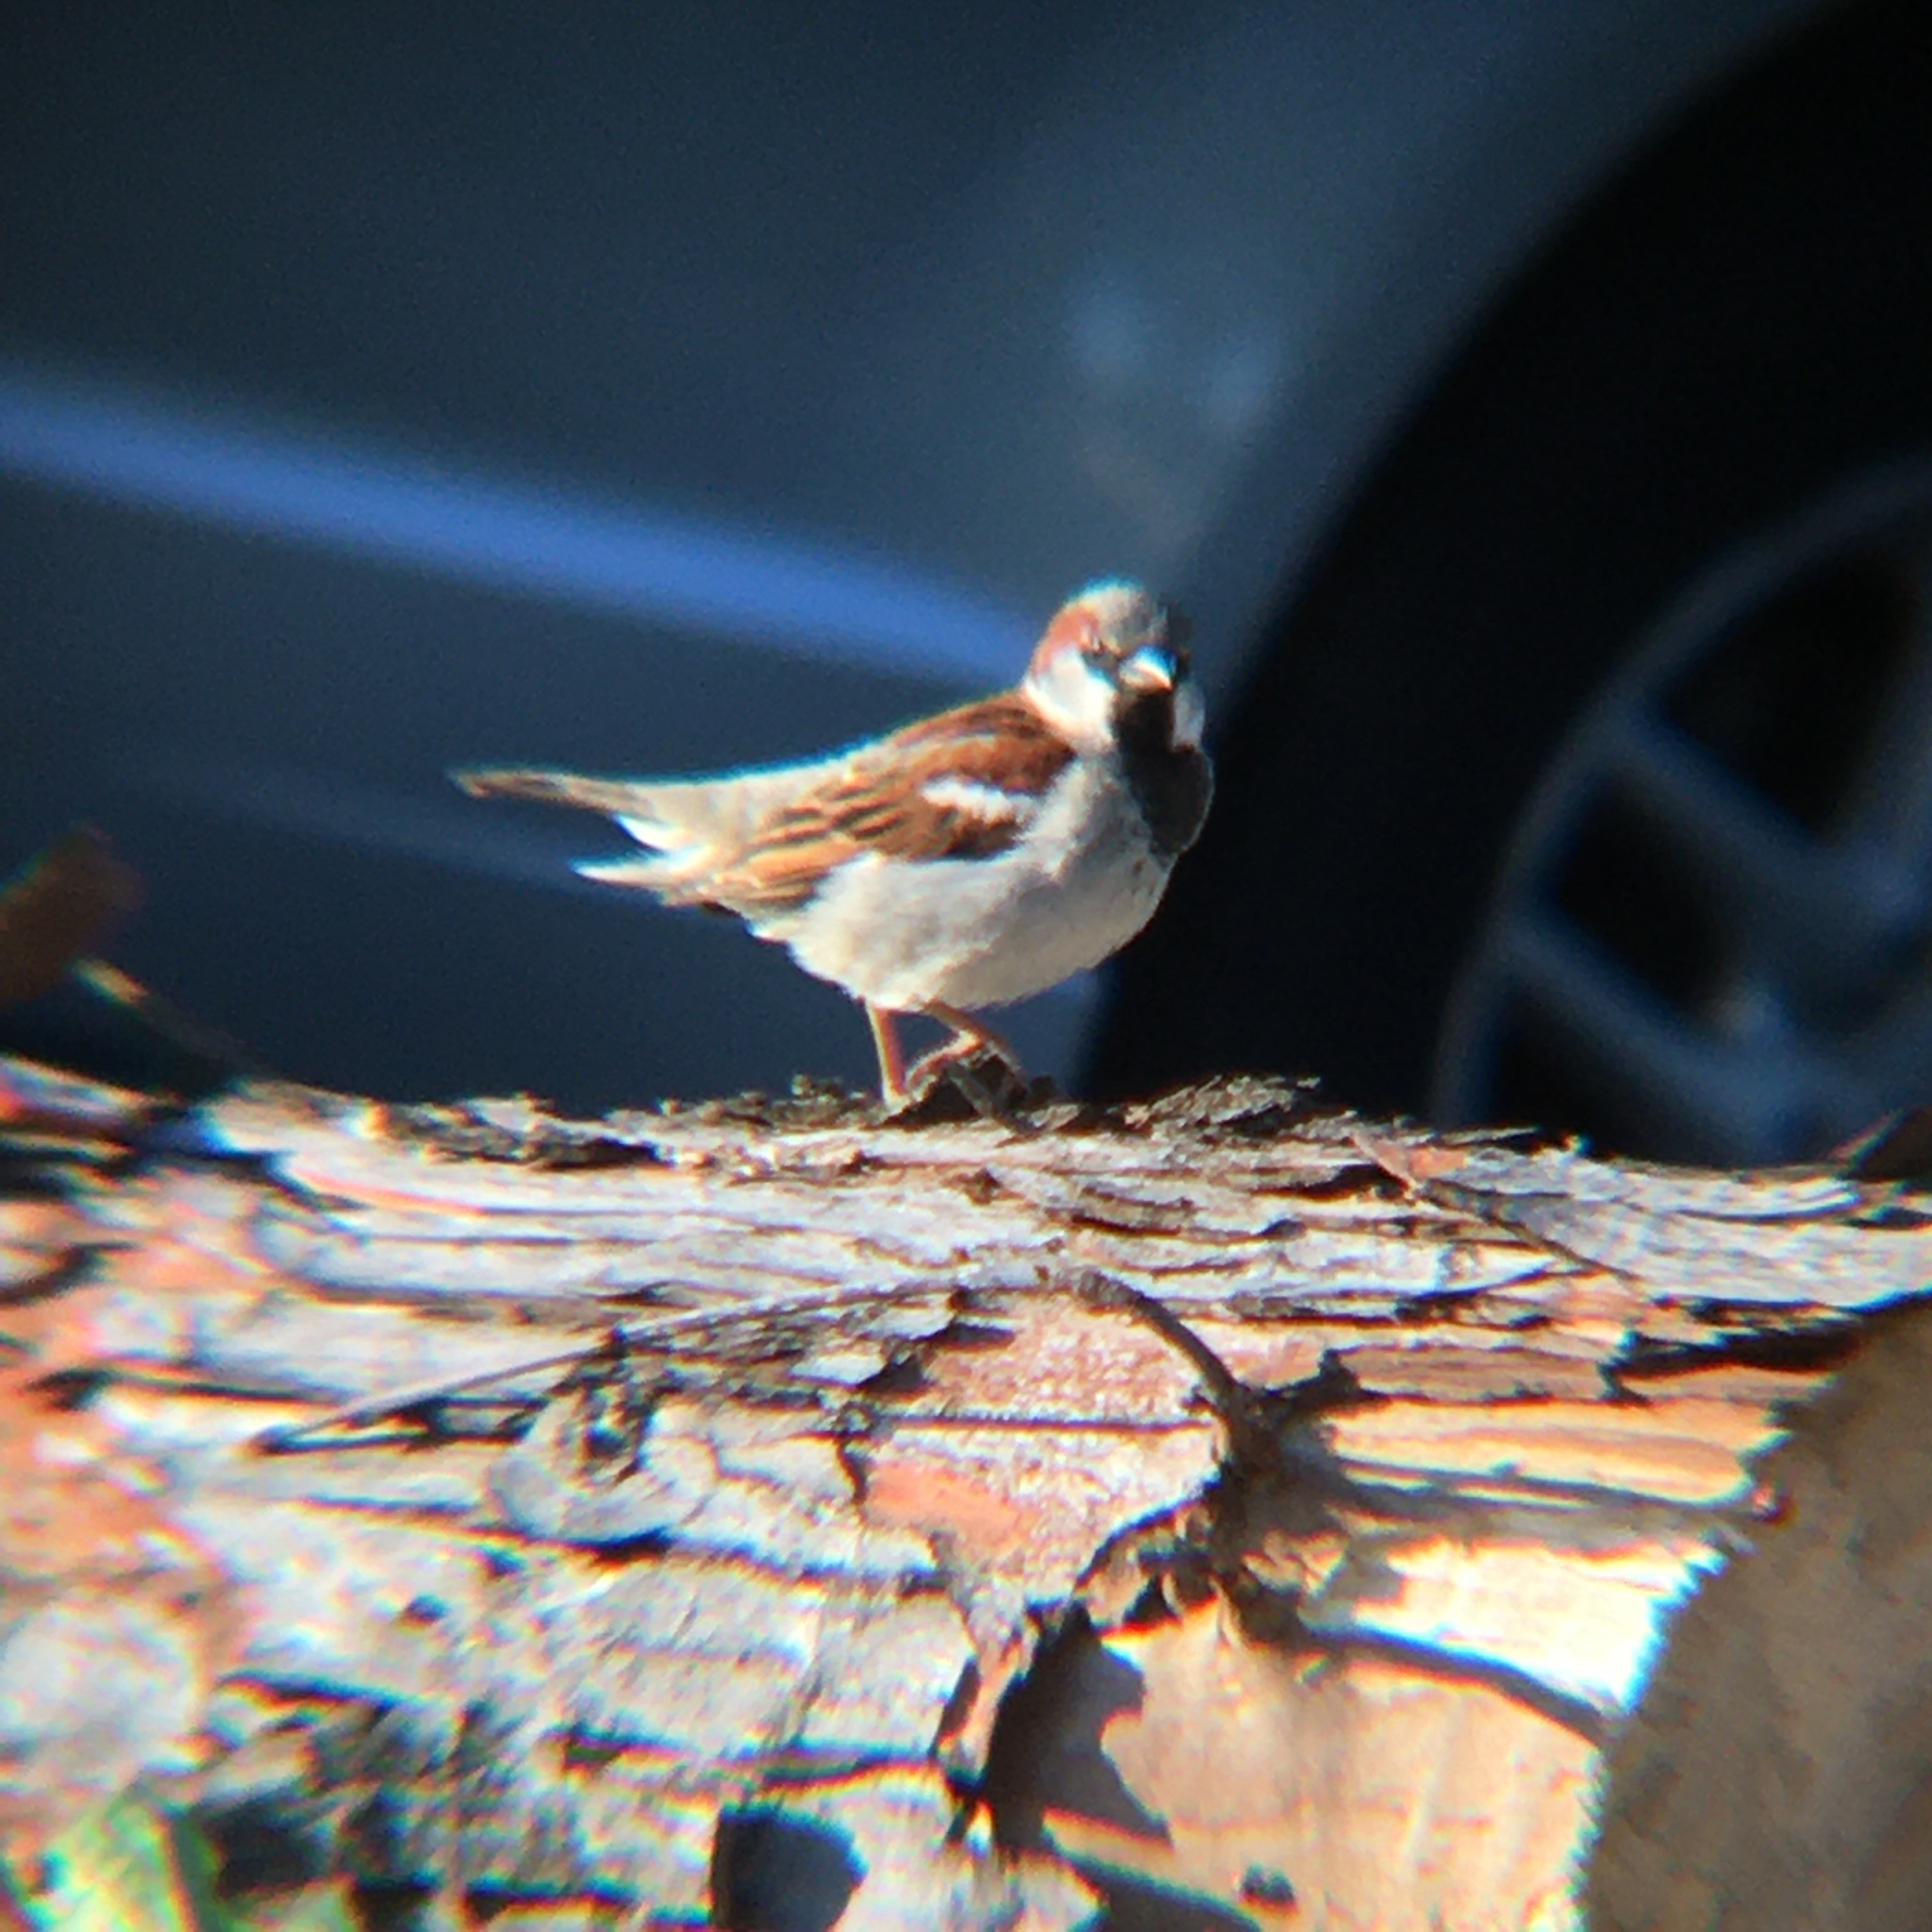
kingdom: Animalia
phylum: Chordata
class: Aves
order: Passeriformes
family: Passeridae
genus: Passer
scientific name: Passer domesticus
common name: House sparrow
